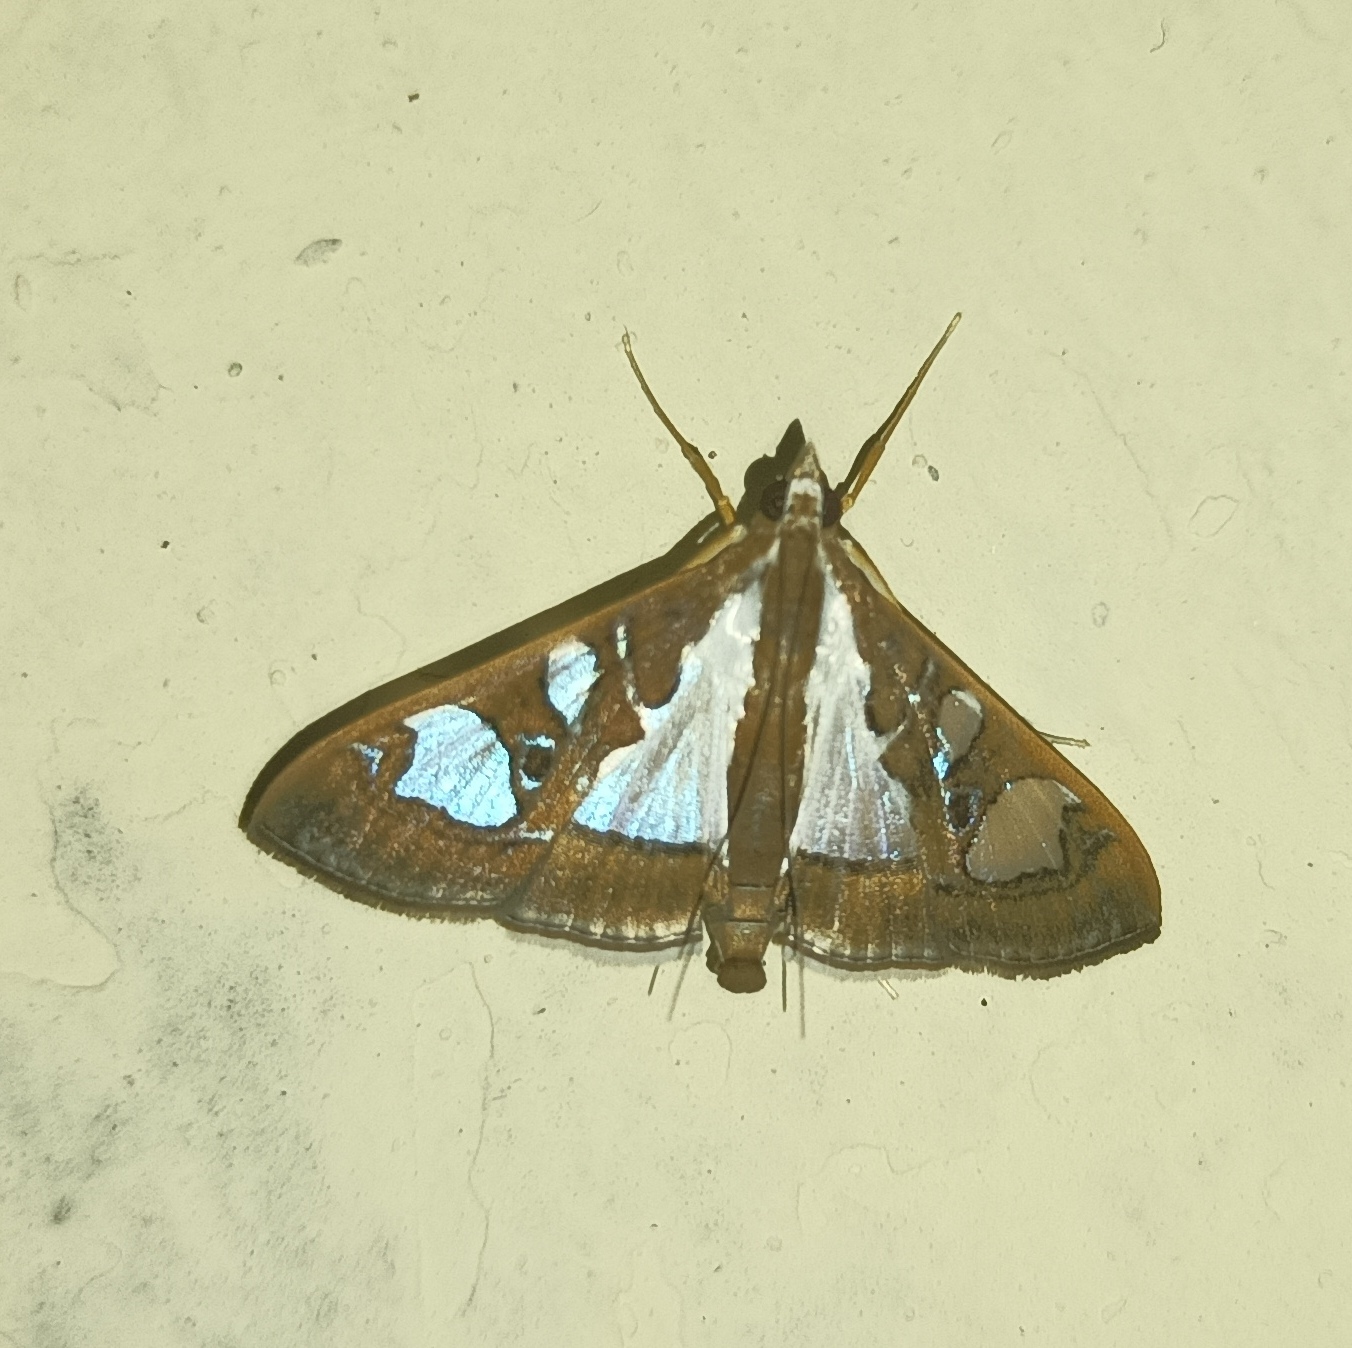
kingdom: Animalia
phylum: Arthropoda
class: Insecta
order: Lepidoptera
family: Crambidae
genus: Glyphodes
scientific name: Glyphodes bivitralis
